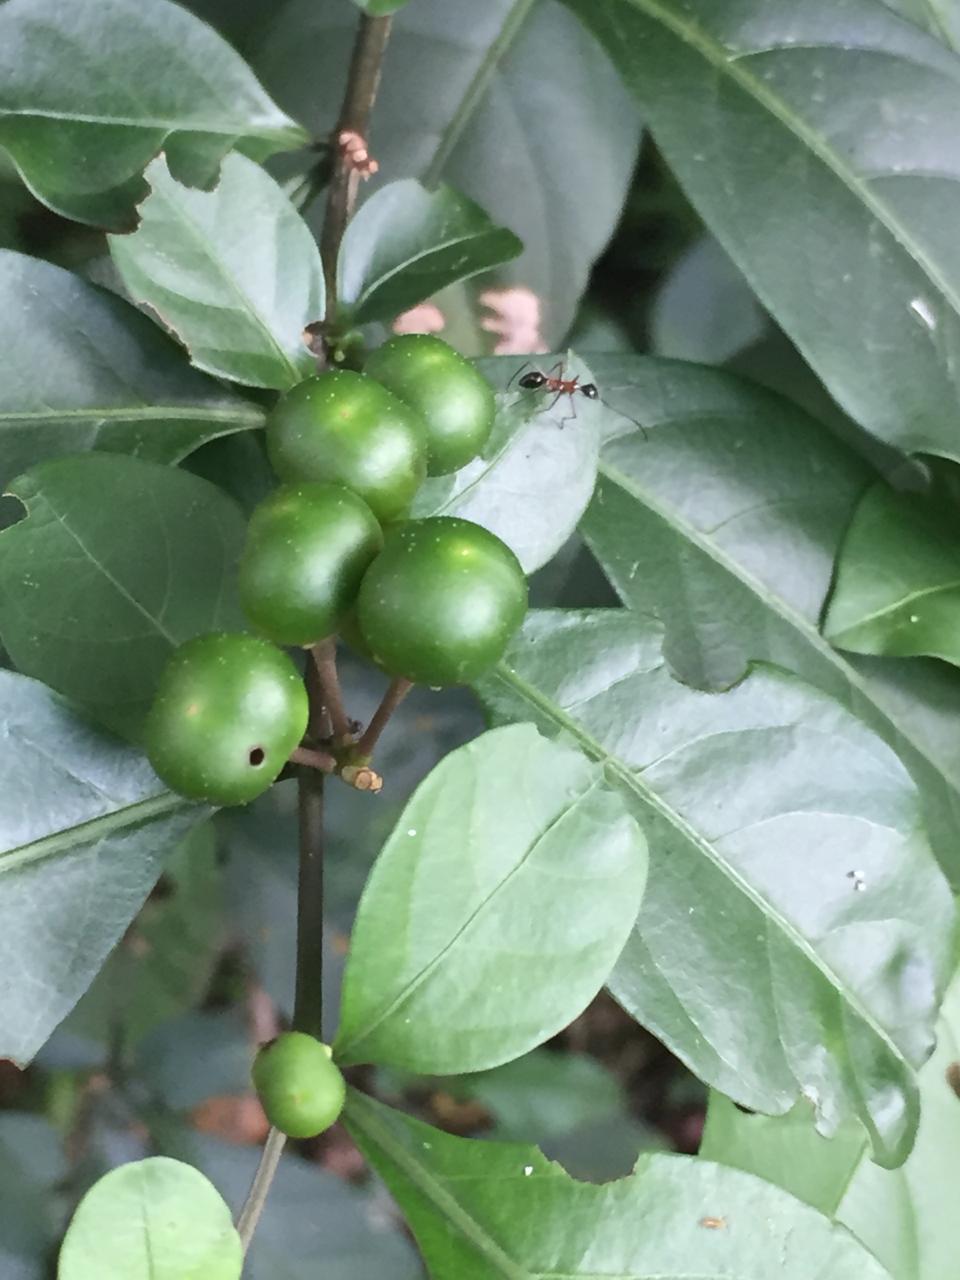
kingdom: Plantae
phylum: Tracheophyta
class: Magnoliopsida
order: Solanales
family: Solanaceae
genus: Solanum
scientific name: Solanum diphyllum
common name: Twoleaf nightshade
